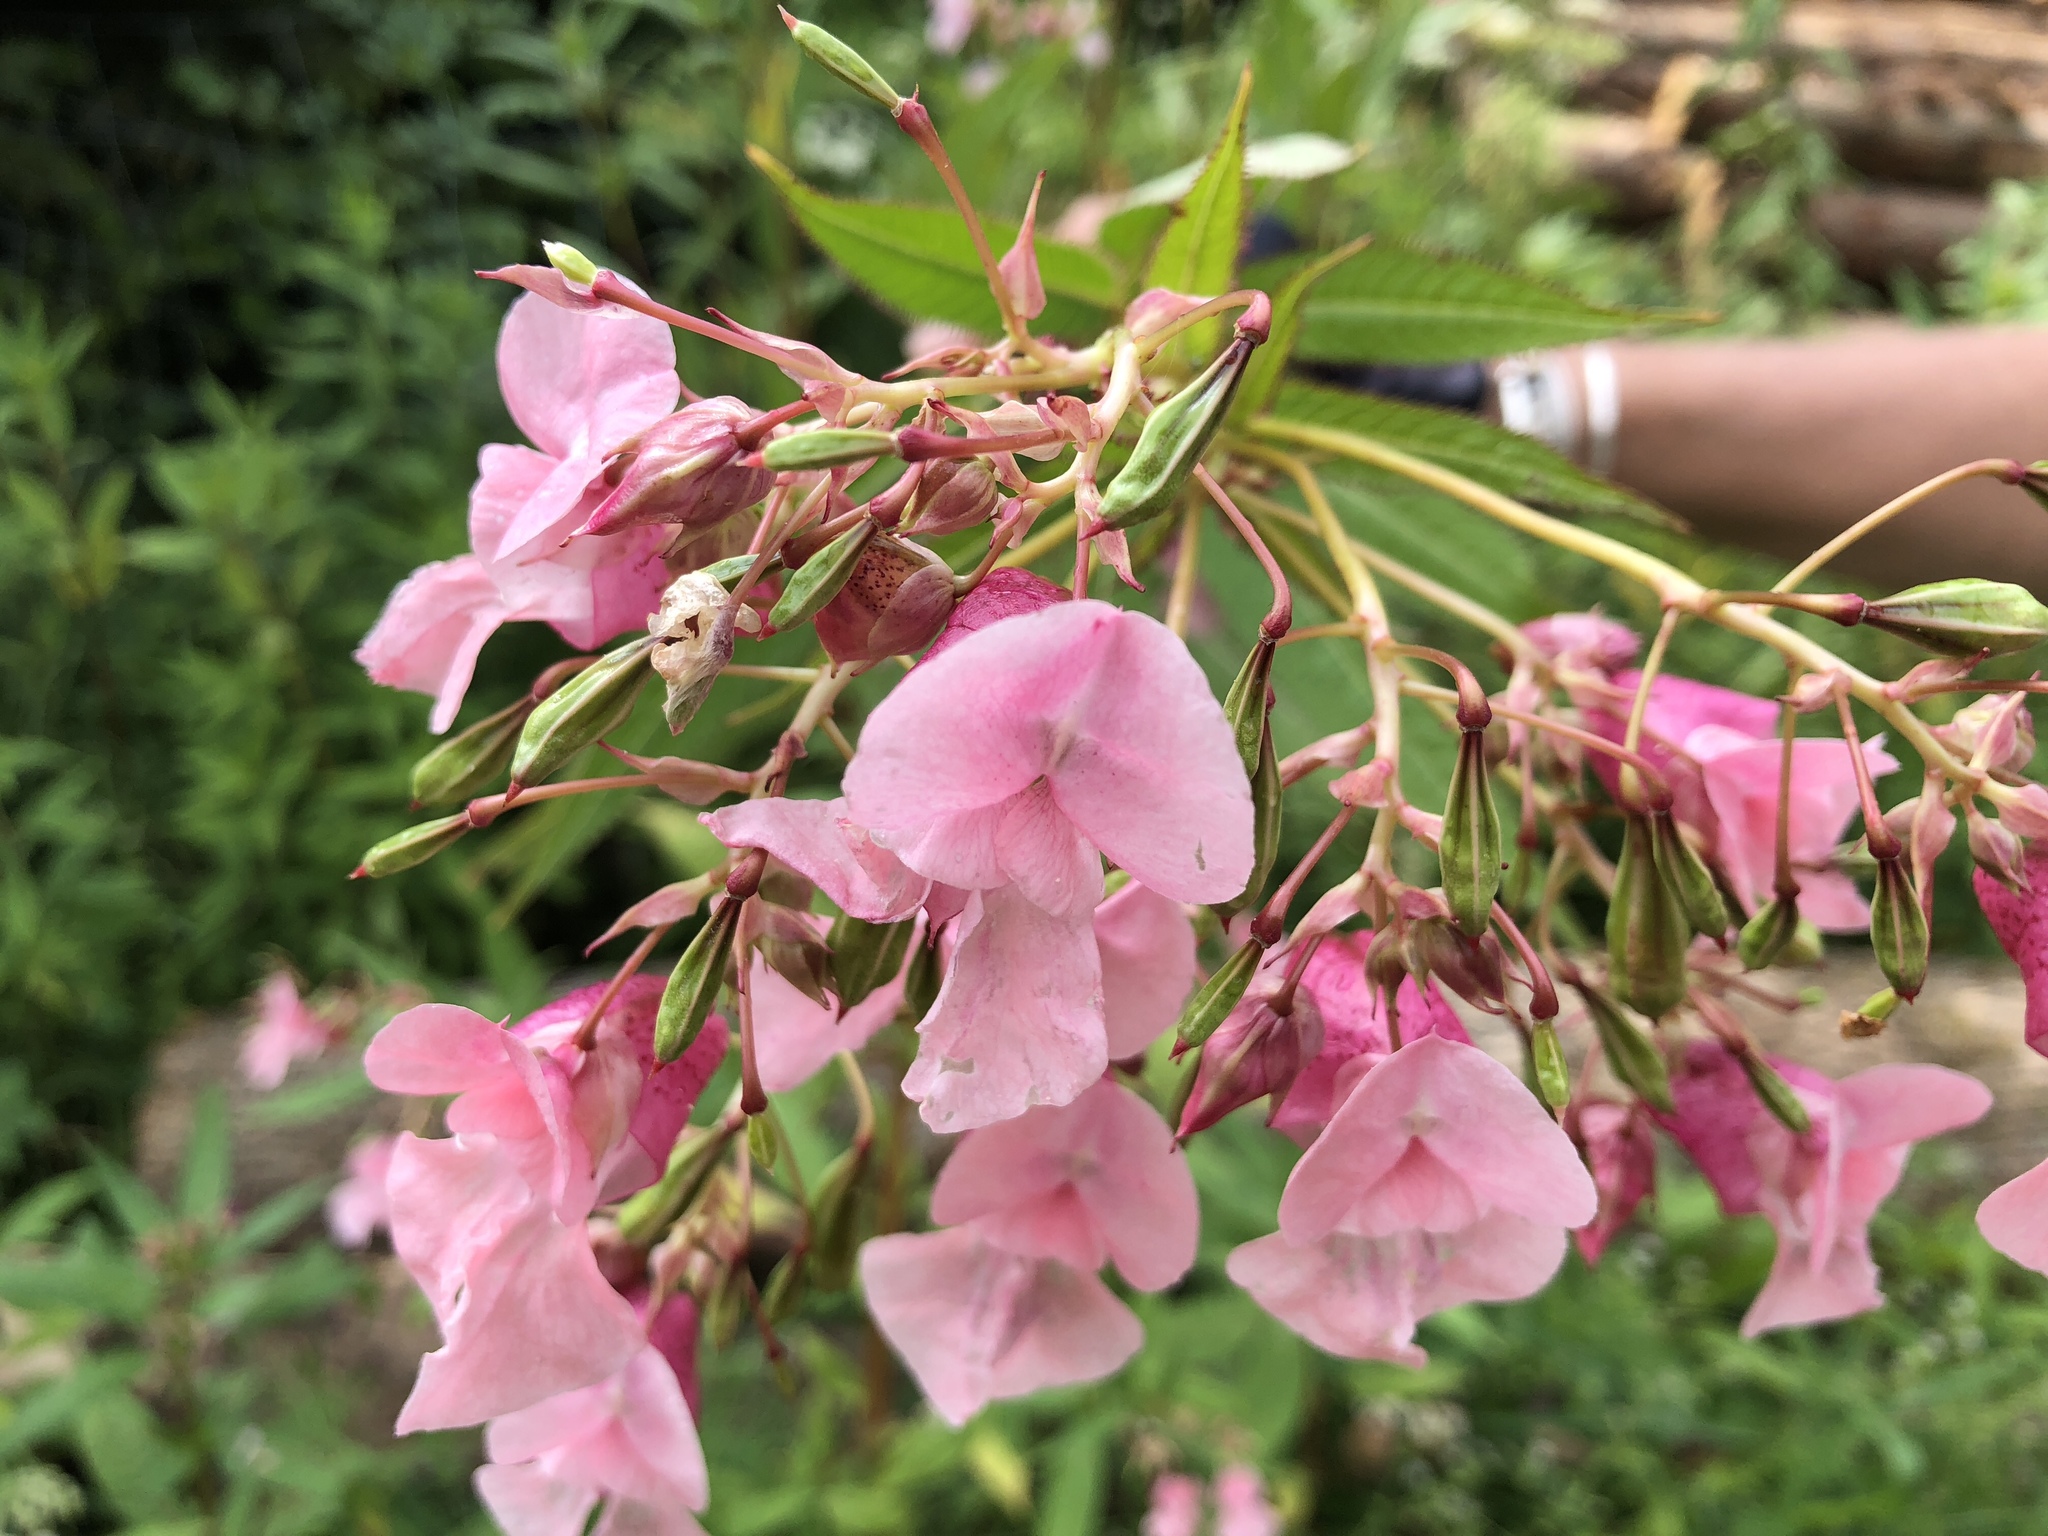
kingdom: Plantae
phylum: Tracheophyta
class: Magnoliopsida
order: Ericales
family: Balsaminaceae
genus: Impatiens
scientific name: Impatiens glandulifera
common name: Himalayan balsam
